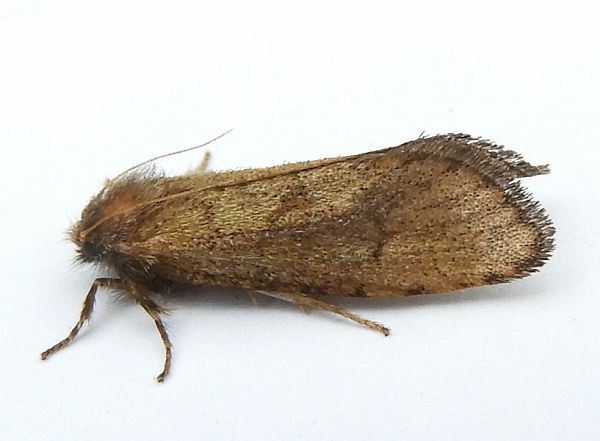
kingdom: Animalia
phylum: Arthropoda
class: Insecta
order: Lepidoptera
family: Tineidae
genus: Acrolophus
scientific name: Acrolophus mora
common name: Dark acrolophus
